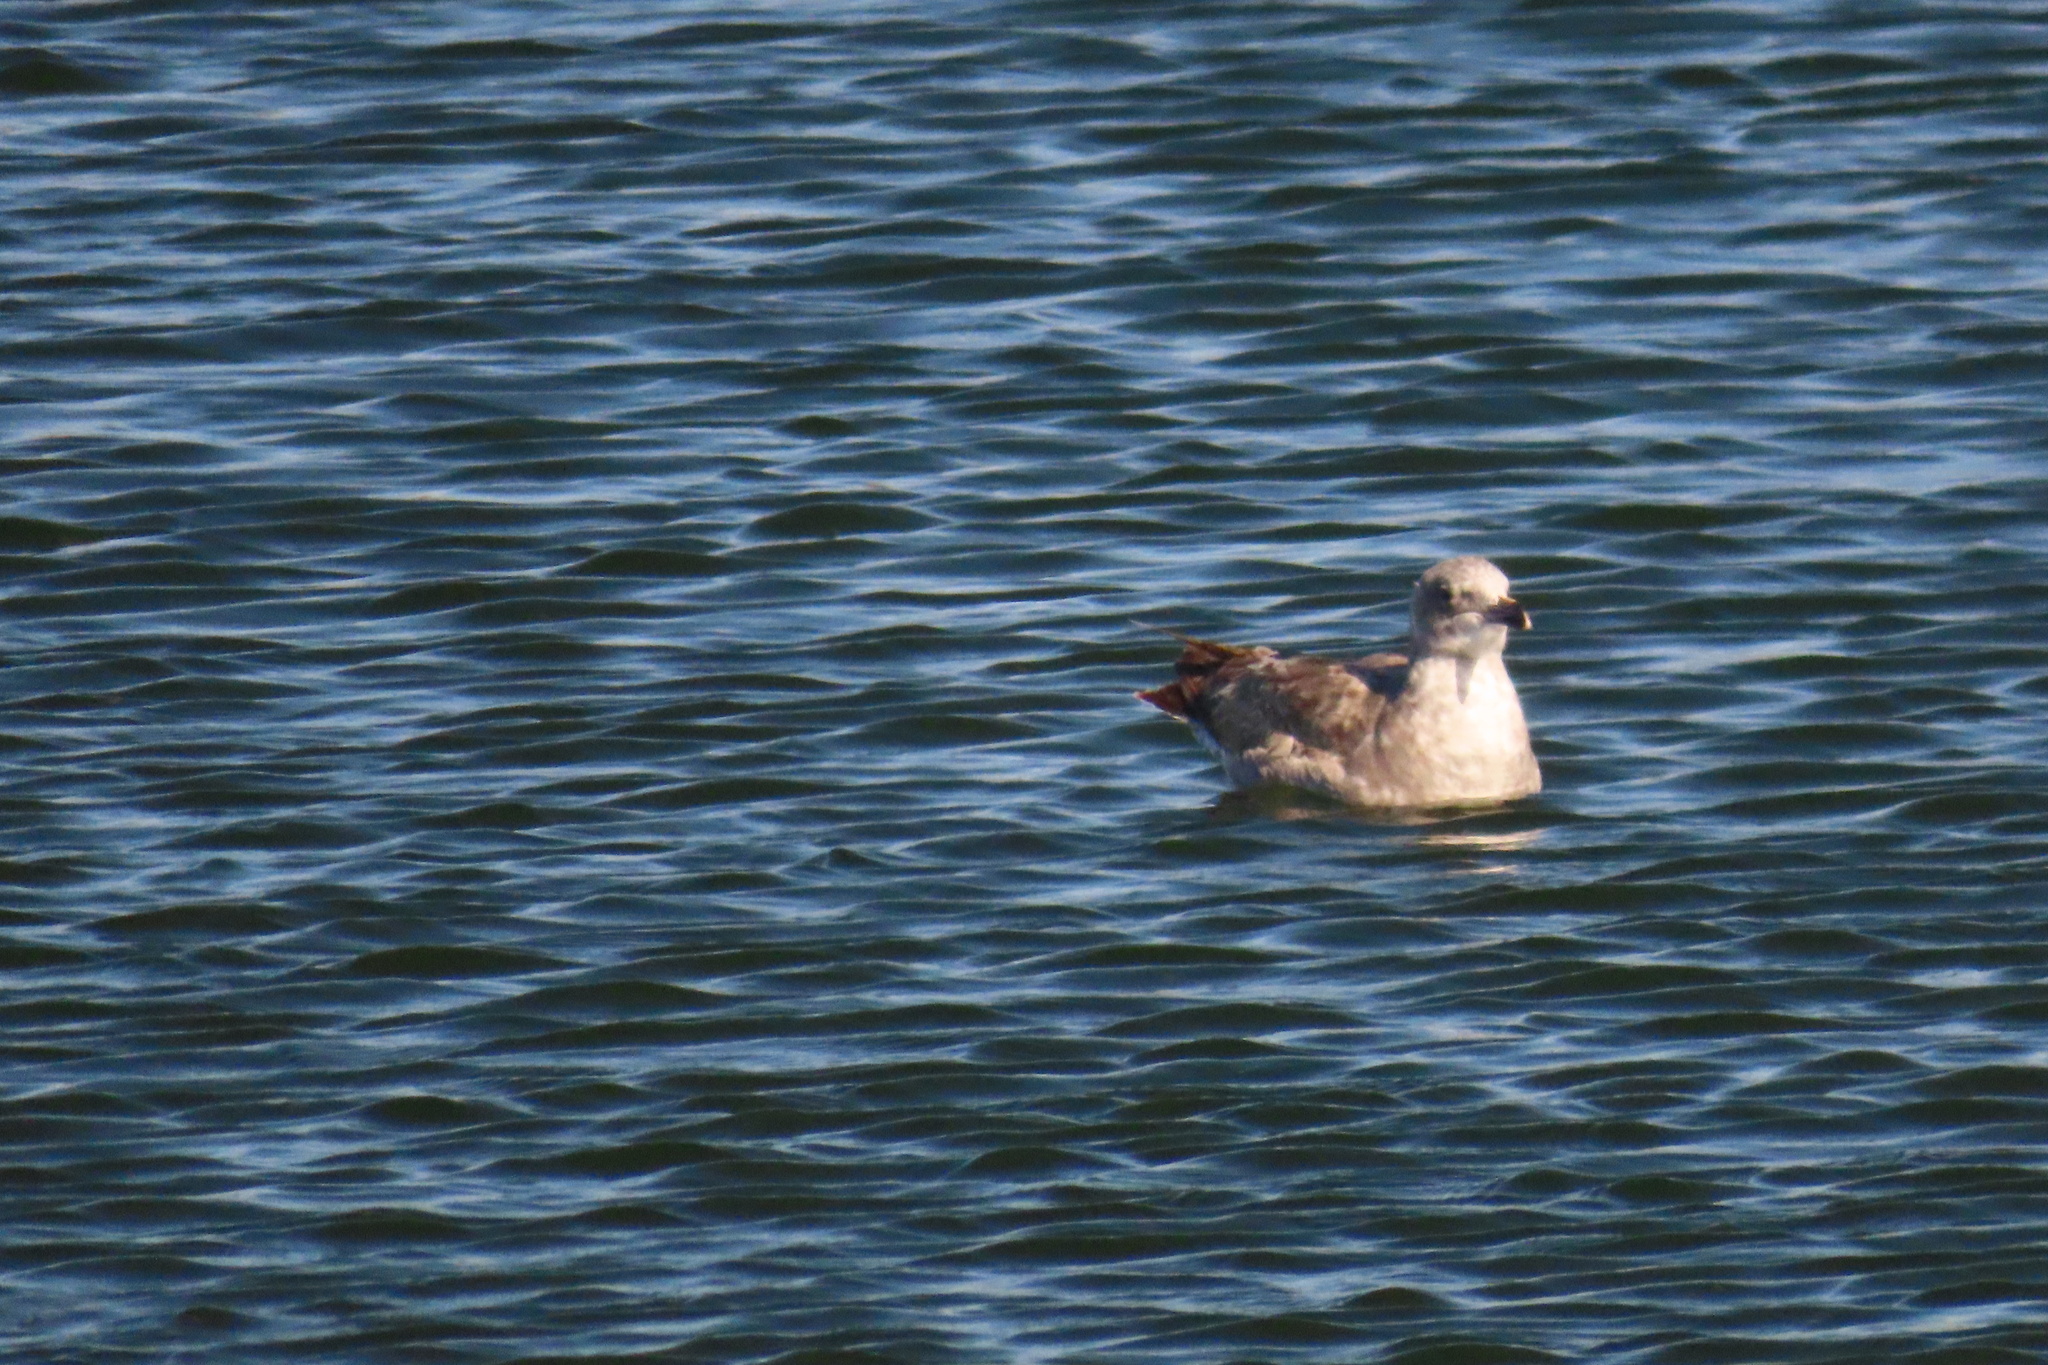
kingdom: Animalia
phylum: Chordata
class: Aves
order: Charadriiformes
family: Laridae
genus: Larus
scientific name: Larus occidentalis
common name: Western gull
